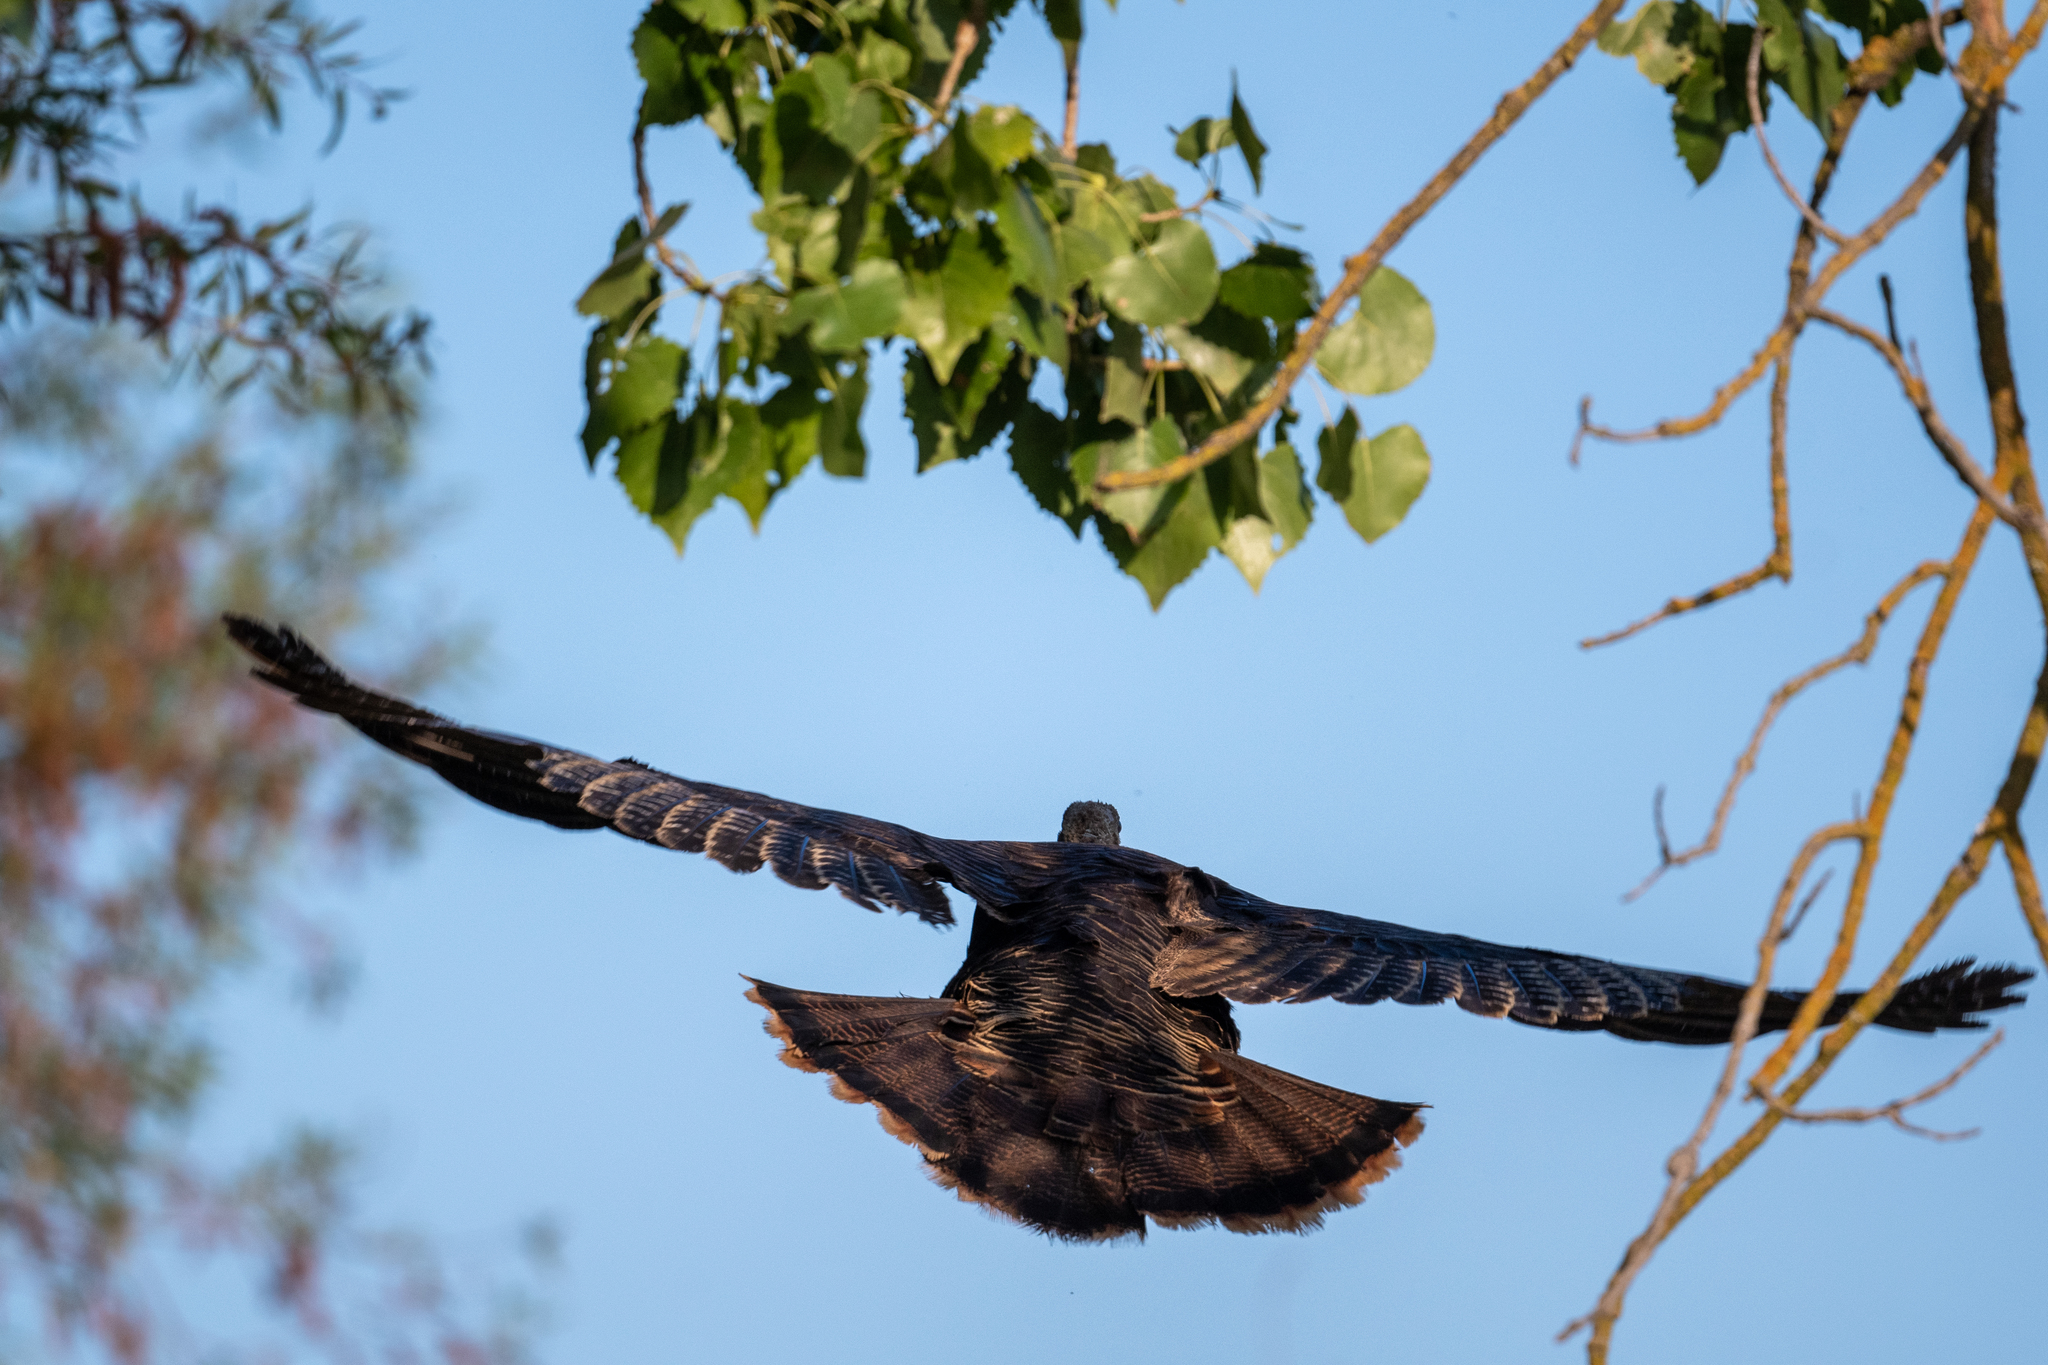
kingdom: Animalia
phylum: Chordata
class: Aves
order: Galliformes
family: Phasianidae
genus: Meleagris
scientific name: Meleagris gallopavo
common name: Wild turkey
